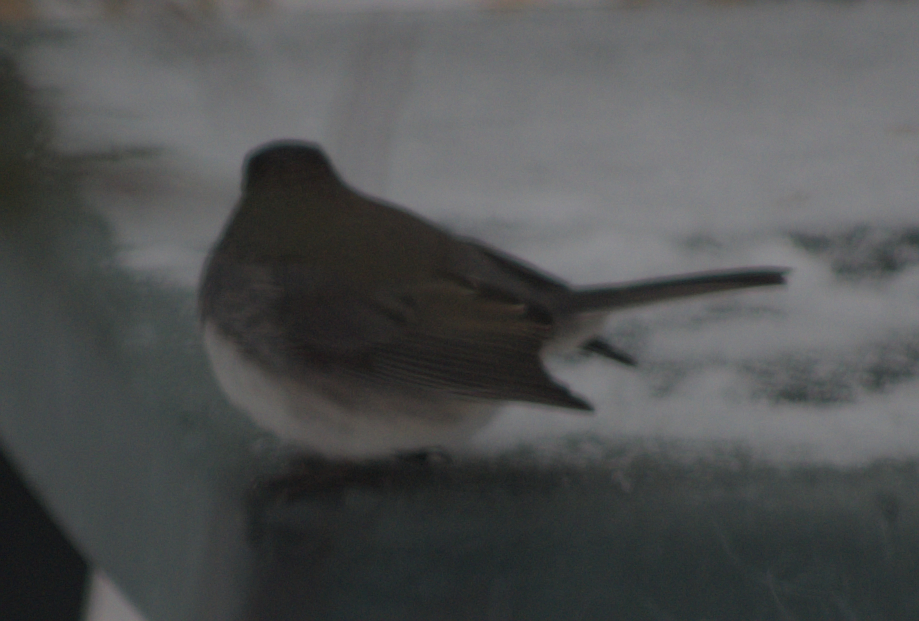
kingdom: Animalia
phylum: Chordata
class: Aves
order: Passeriformes
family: Passerellidae
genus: Junco
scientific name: Junco hyemalis
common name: Dark-eyed junco
